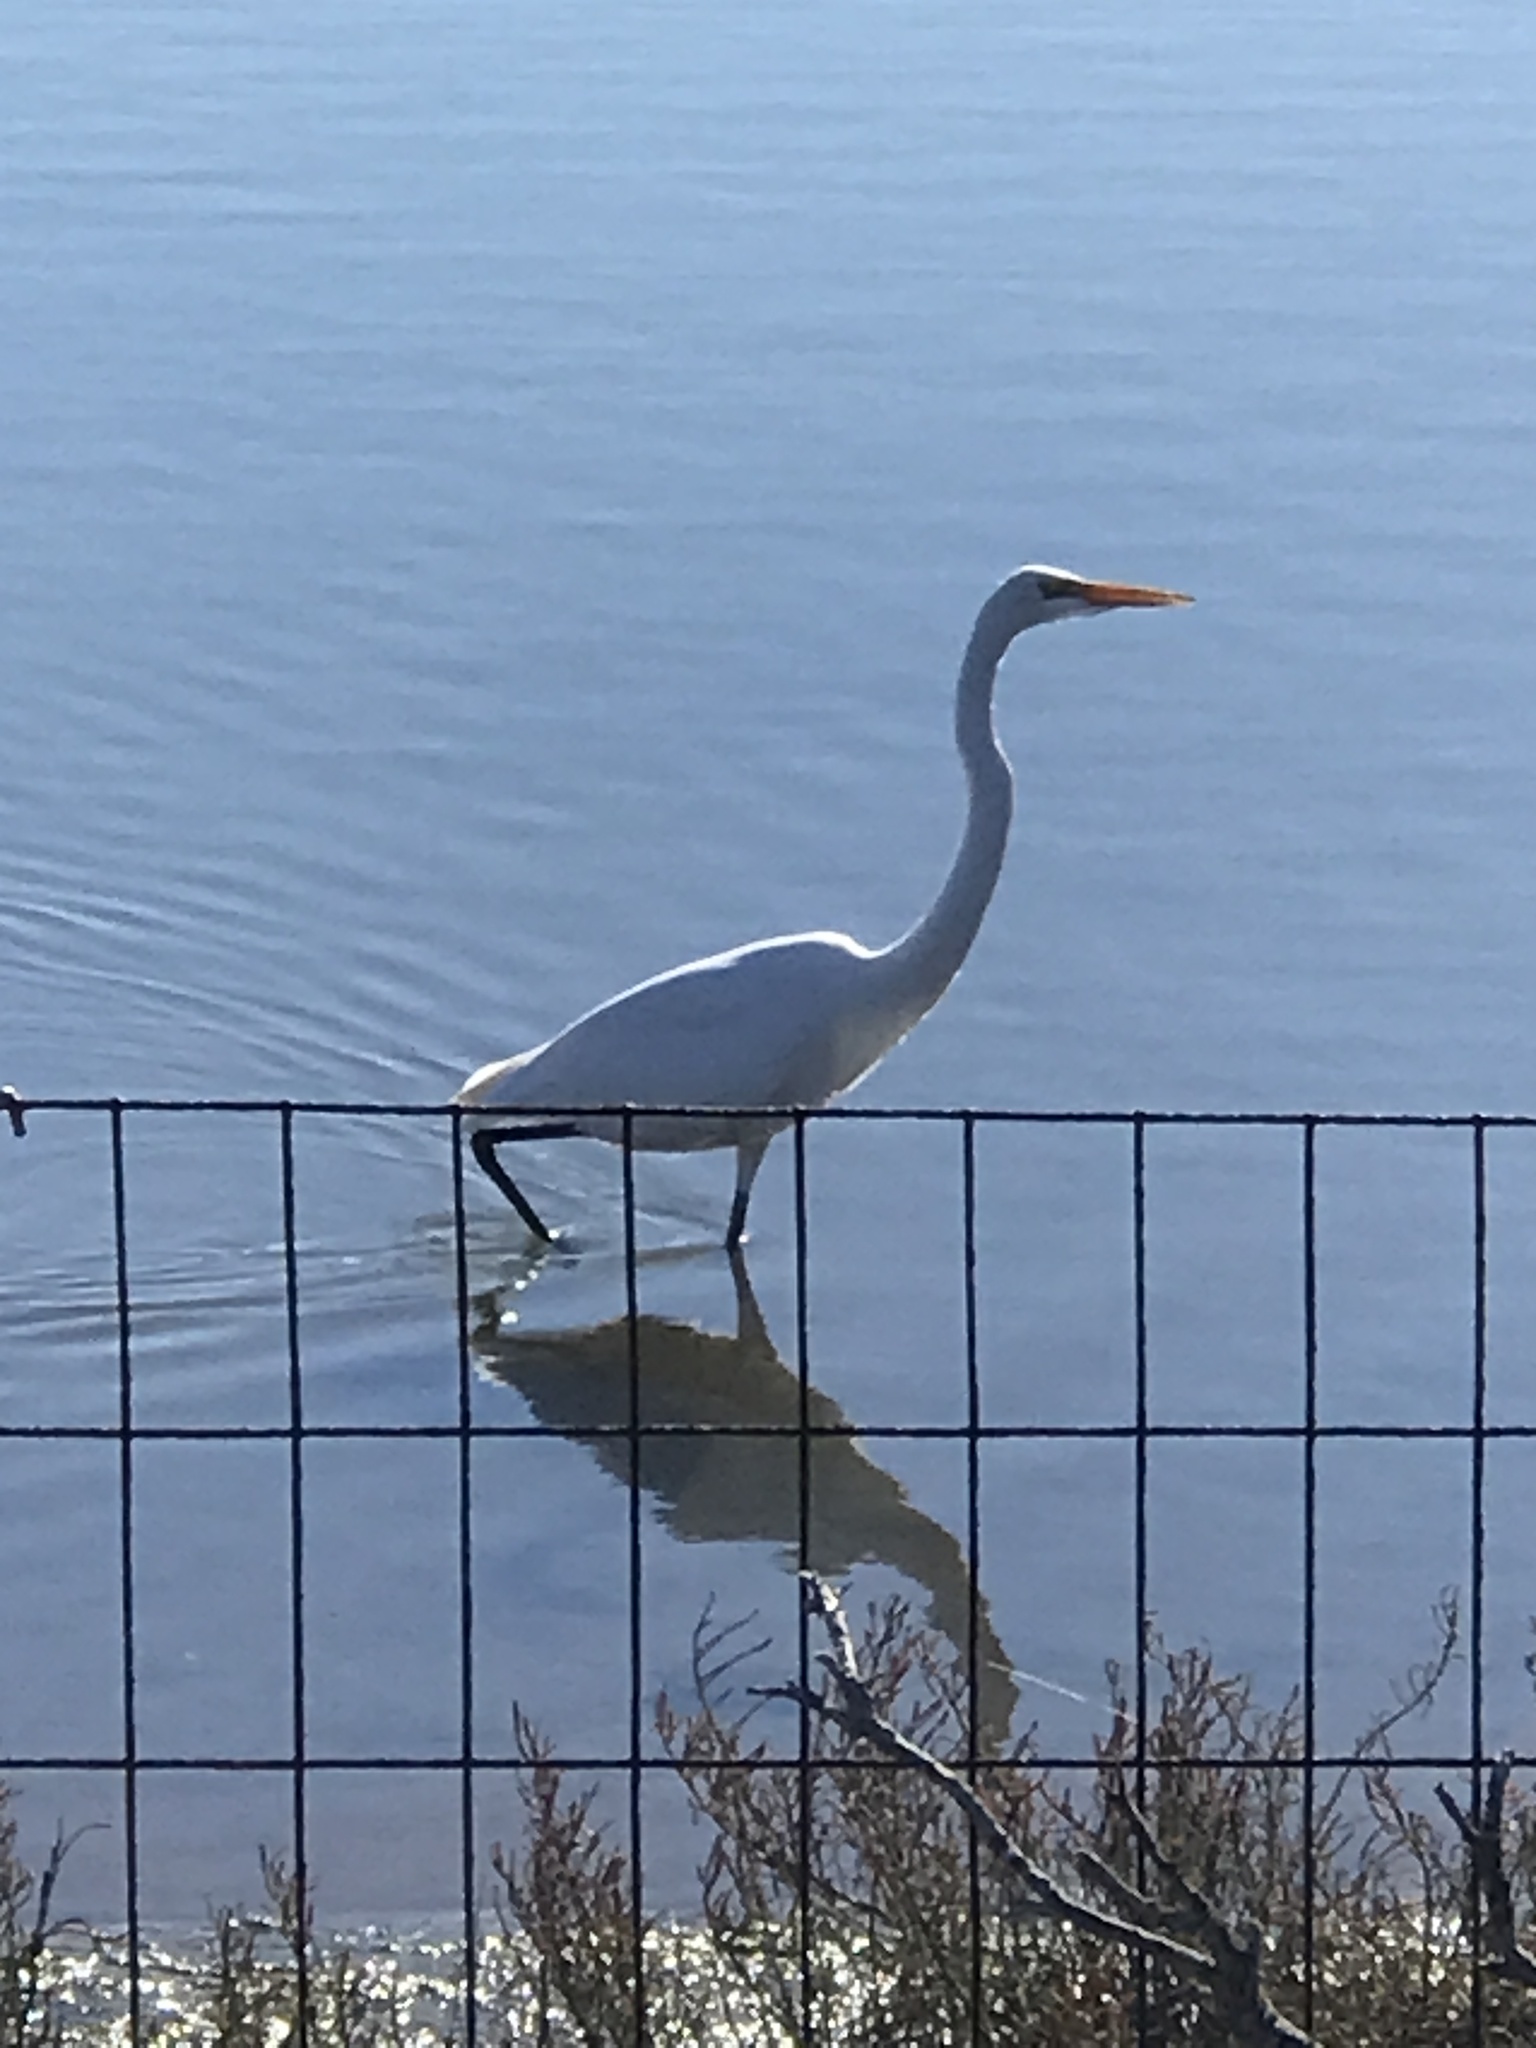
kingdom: Animalia
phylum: Chordata
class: Aves
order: Pelecaniformes
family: Ardeidae
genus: Ardea
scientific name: Ardea alba
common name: Great egret
